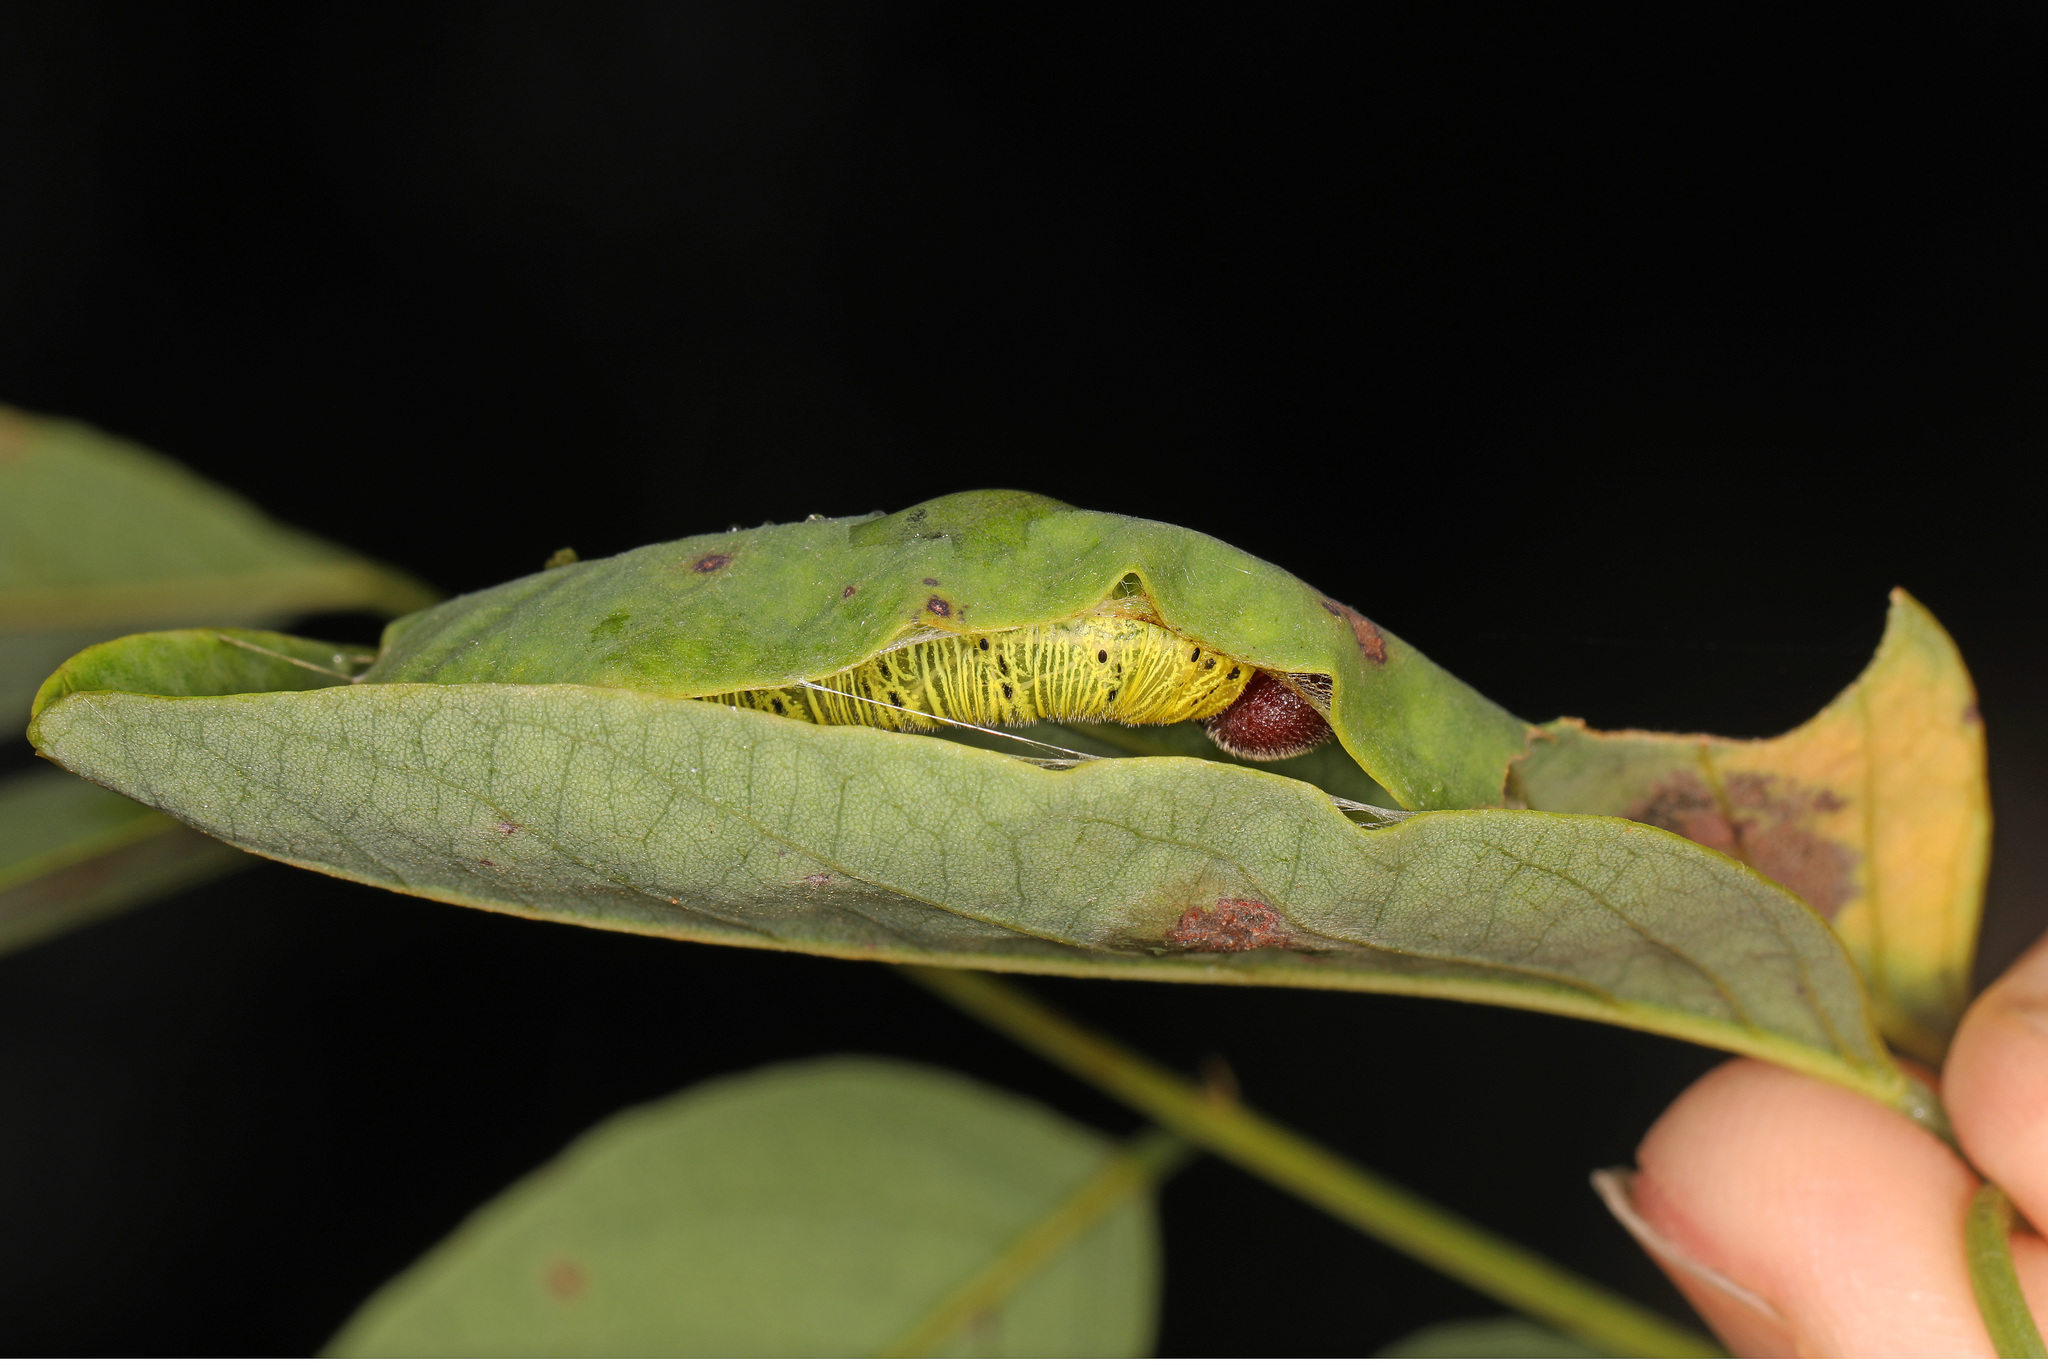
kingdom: Animalia
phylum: Arthropoda
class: Insecta
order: Lepidoptera
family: Hesperiidae
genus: Epargyreus
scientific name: Epargyreus clarus
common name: Silver-spotted skipper
